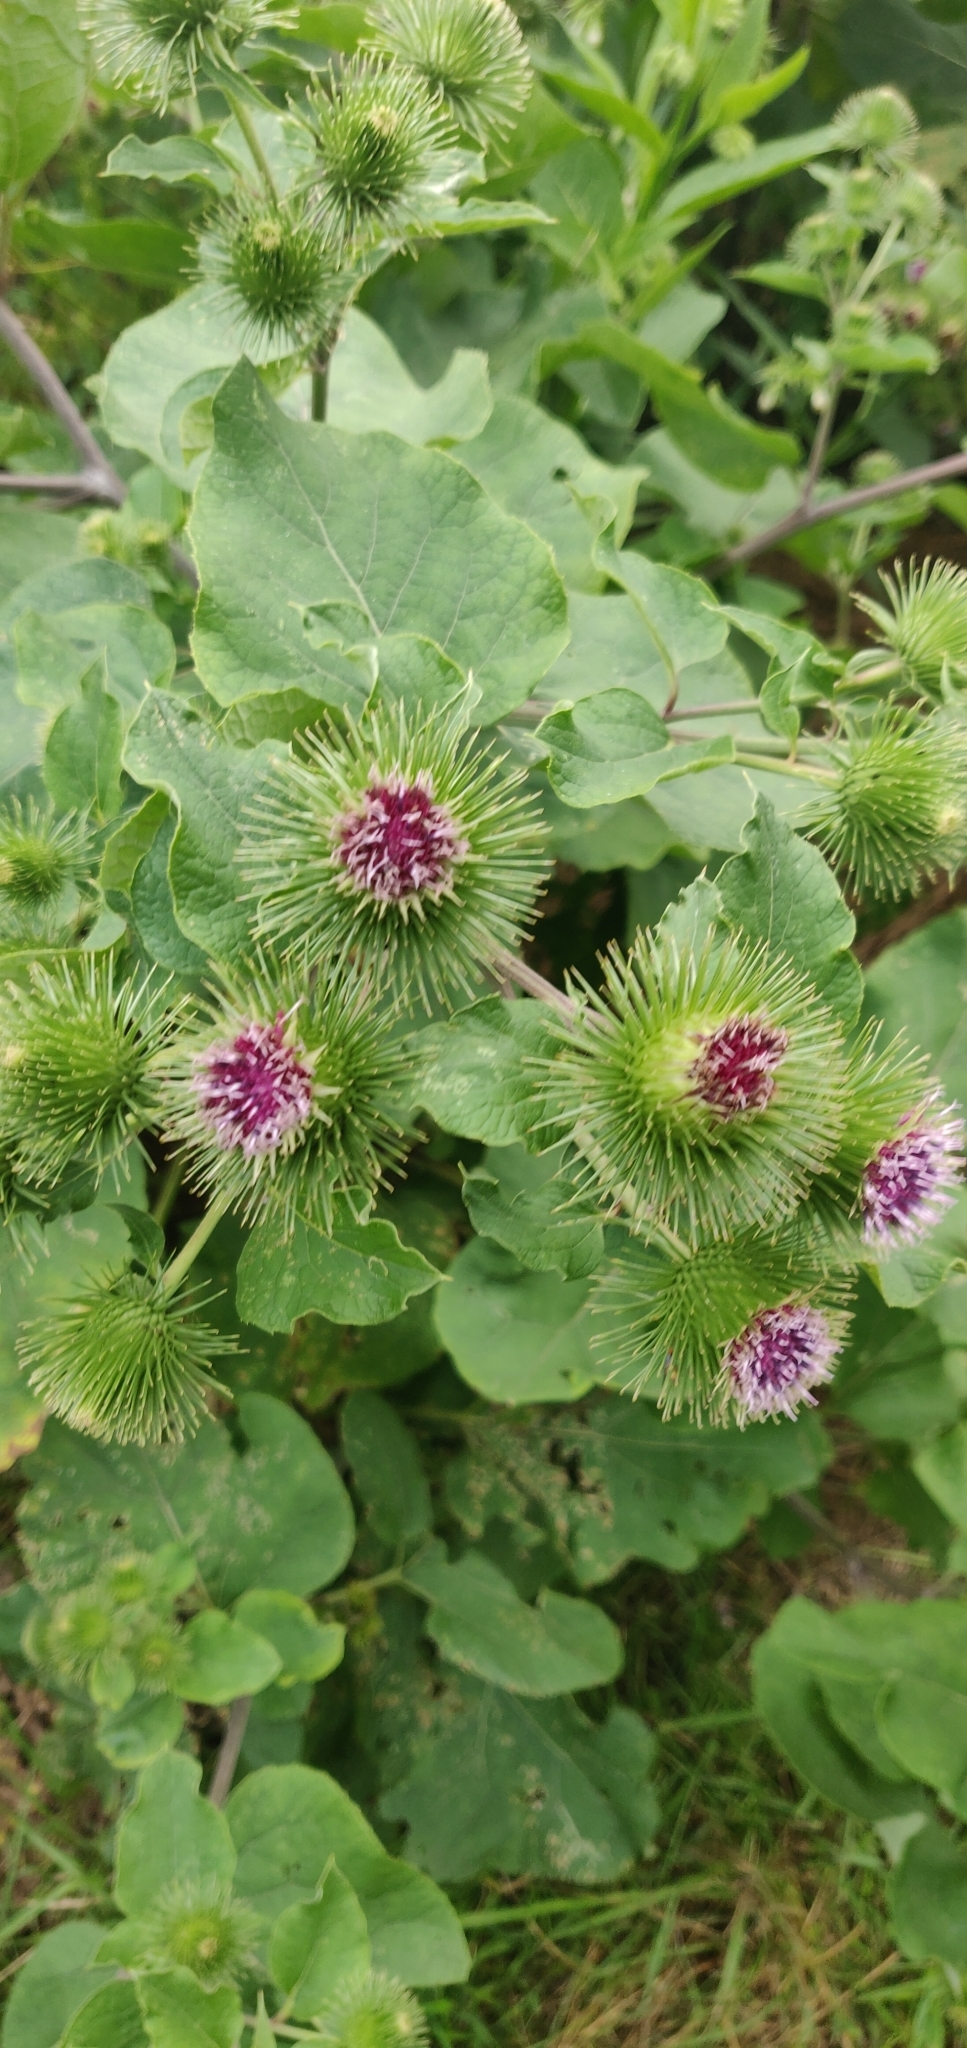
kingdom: Plantae
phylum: Tracheophyta
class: Magnoliopsida
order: Asterales
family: Asteraceae
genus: Arctium
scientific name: Arctium lappa
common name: Greater burdock
